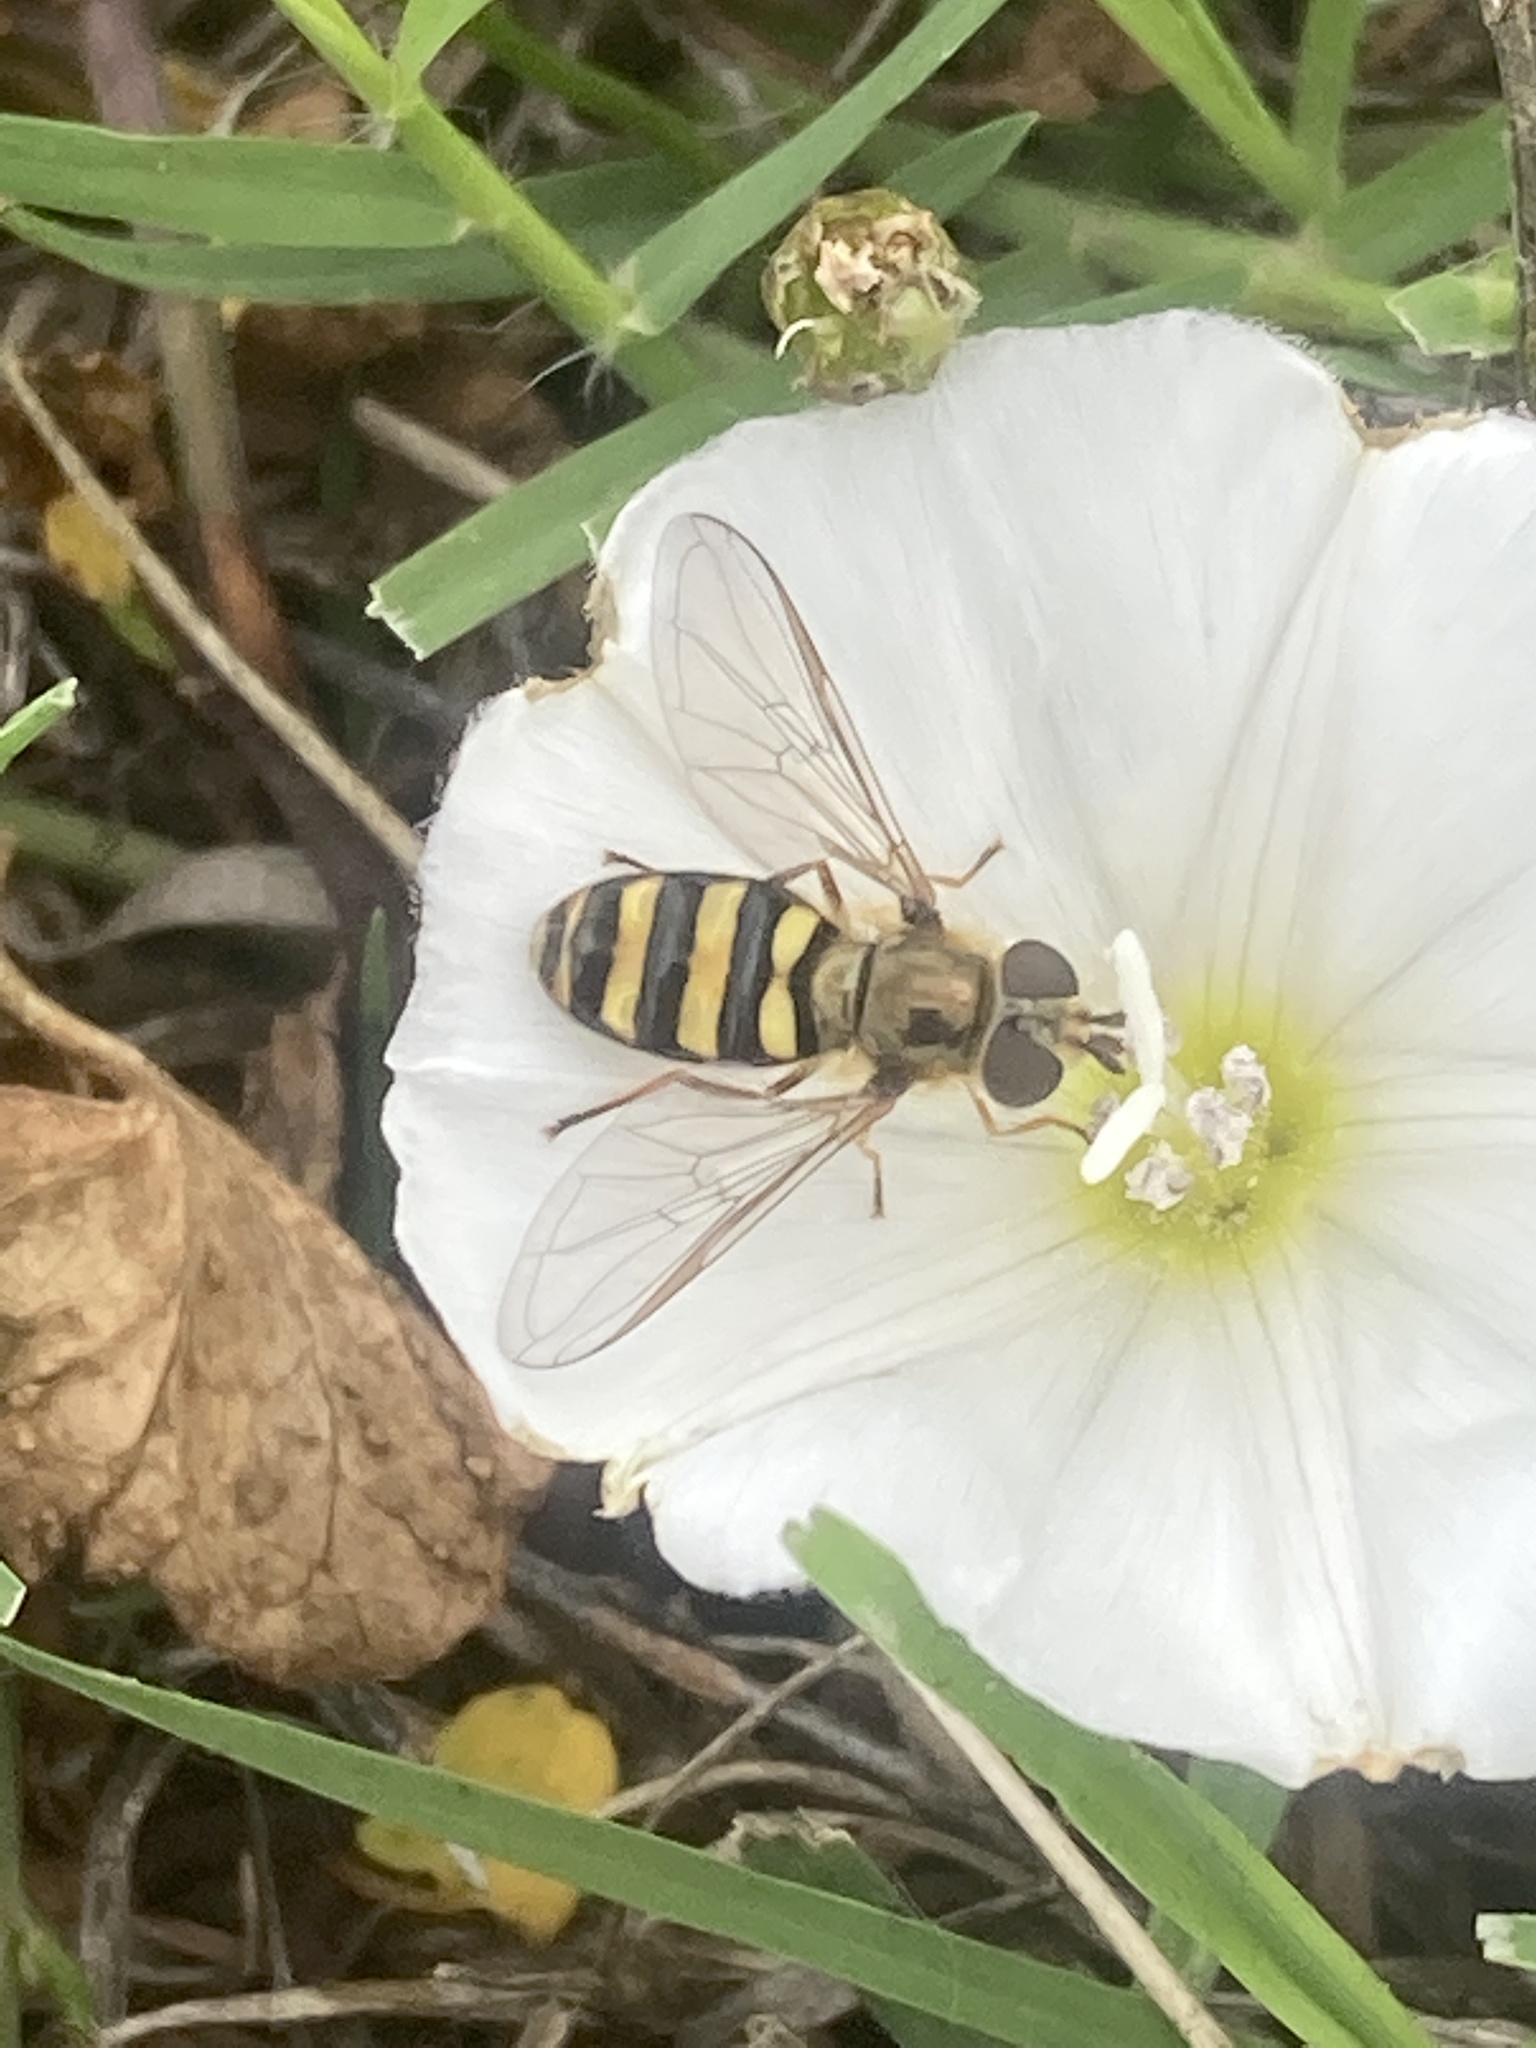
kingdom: Animalia
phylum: Arthropoda
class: Insecta
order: Diptera
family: Syrphidae
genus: Eupeodes
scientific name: Eupeodes
